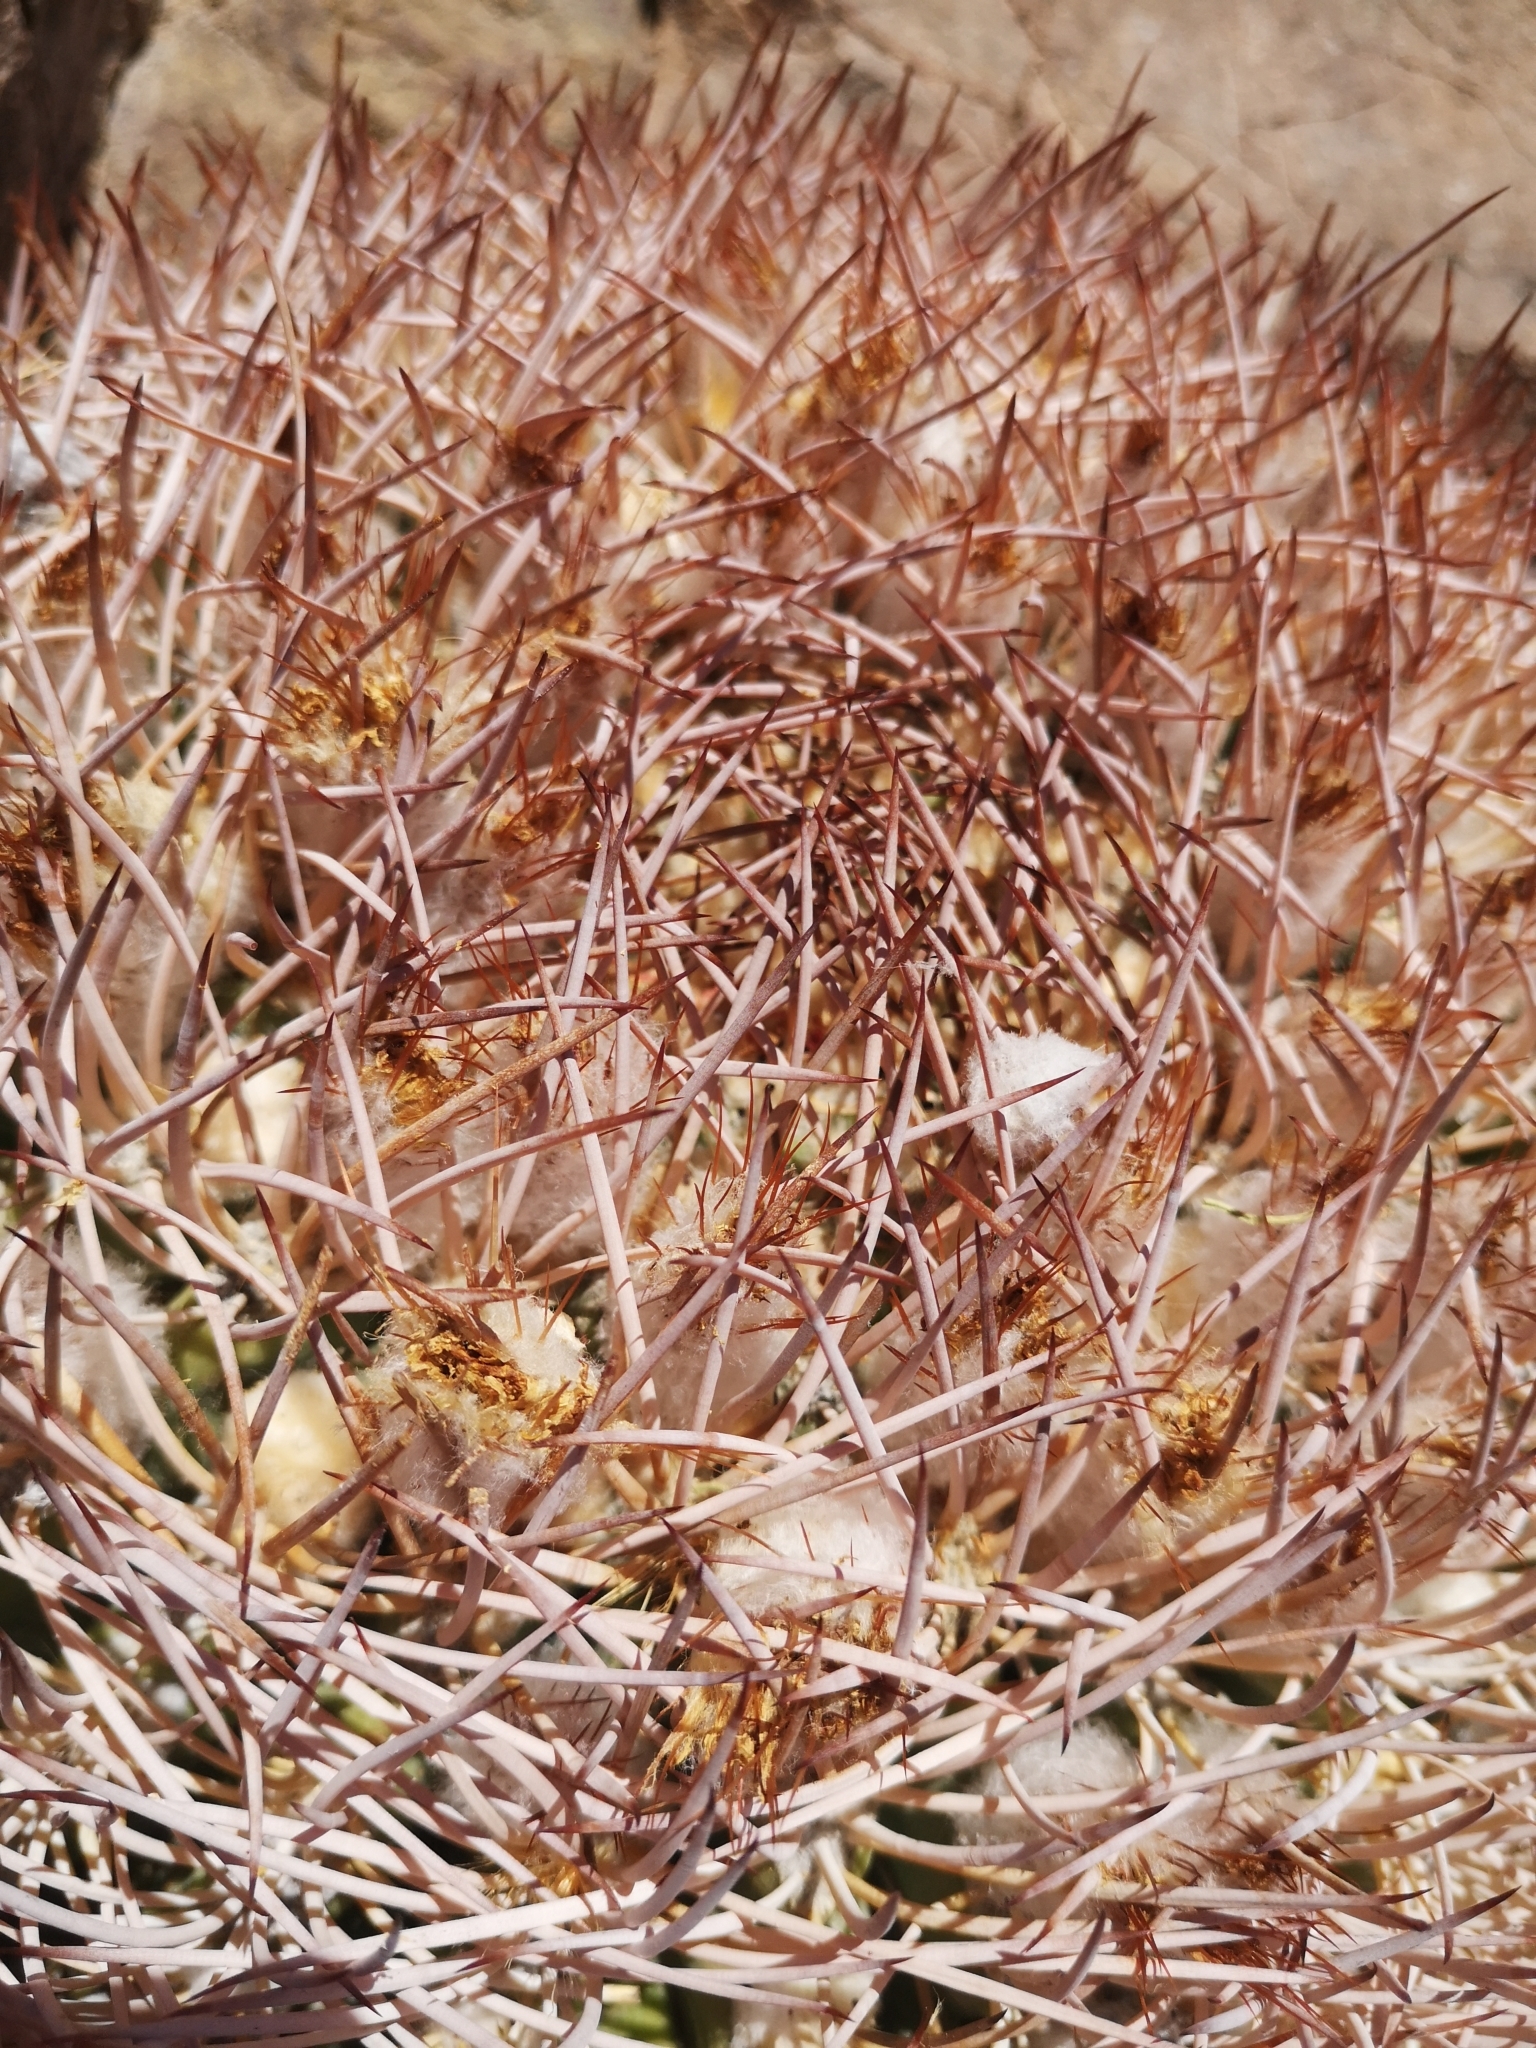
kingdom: Plantae
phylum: Tracheophyta
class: Magnoliopsida
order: Caryophyllales
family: Cactaceae
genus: Eriosyce
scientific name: Eriosyce rodentiophila
